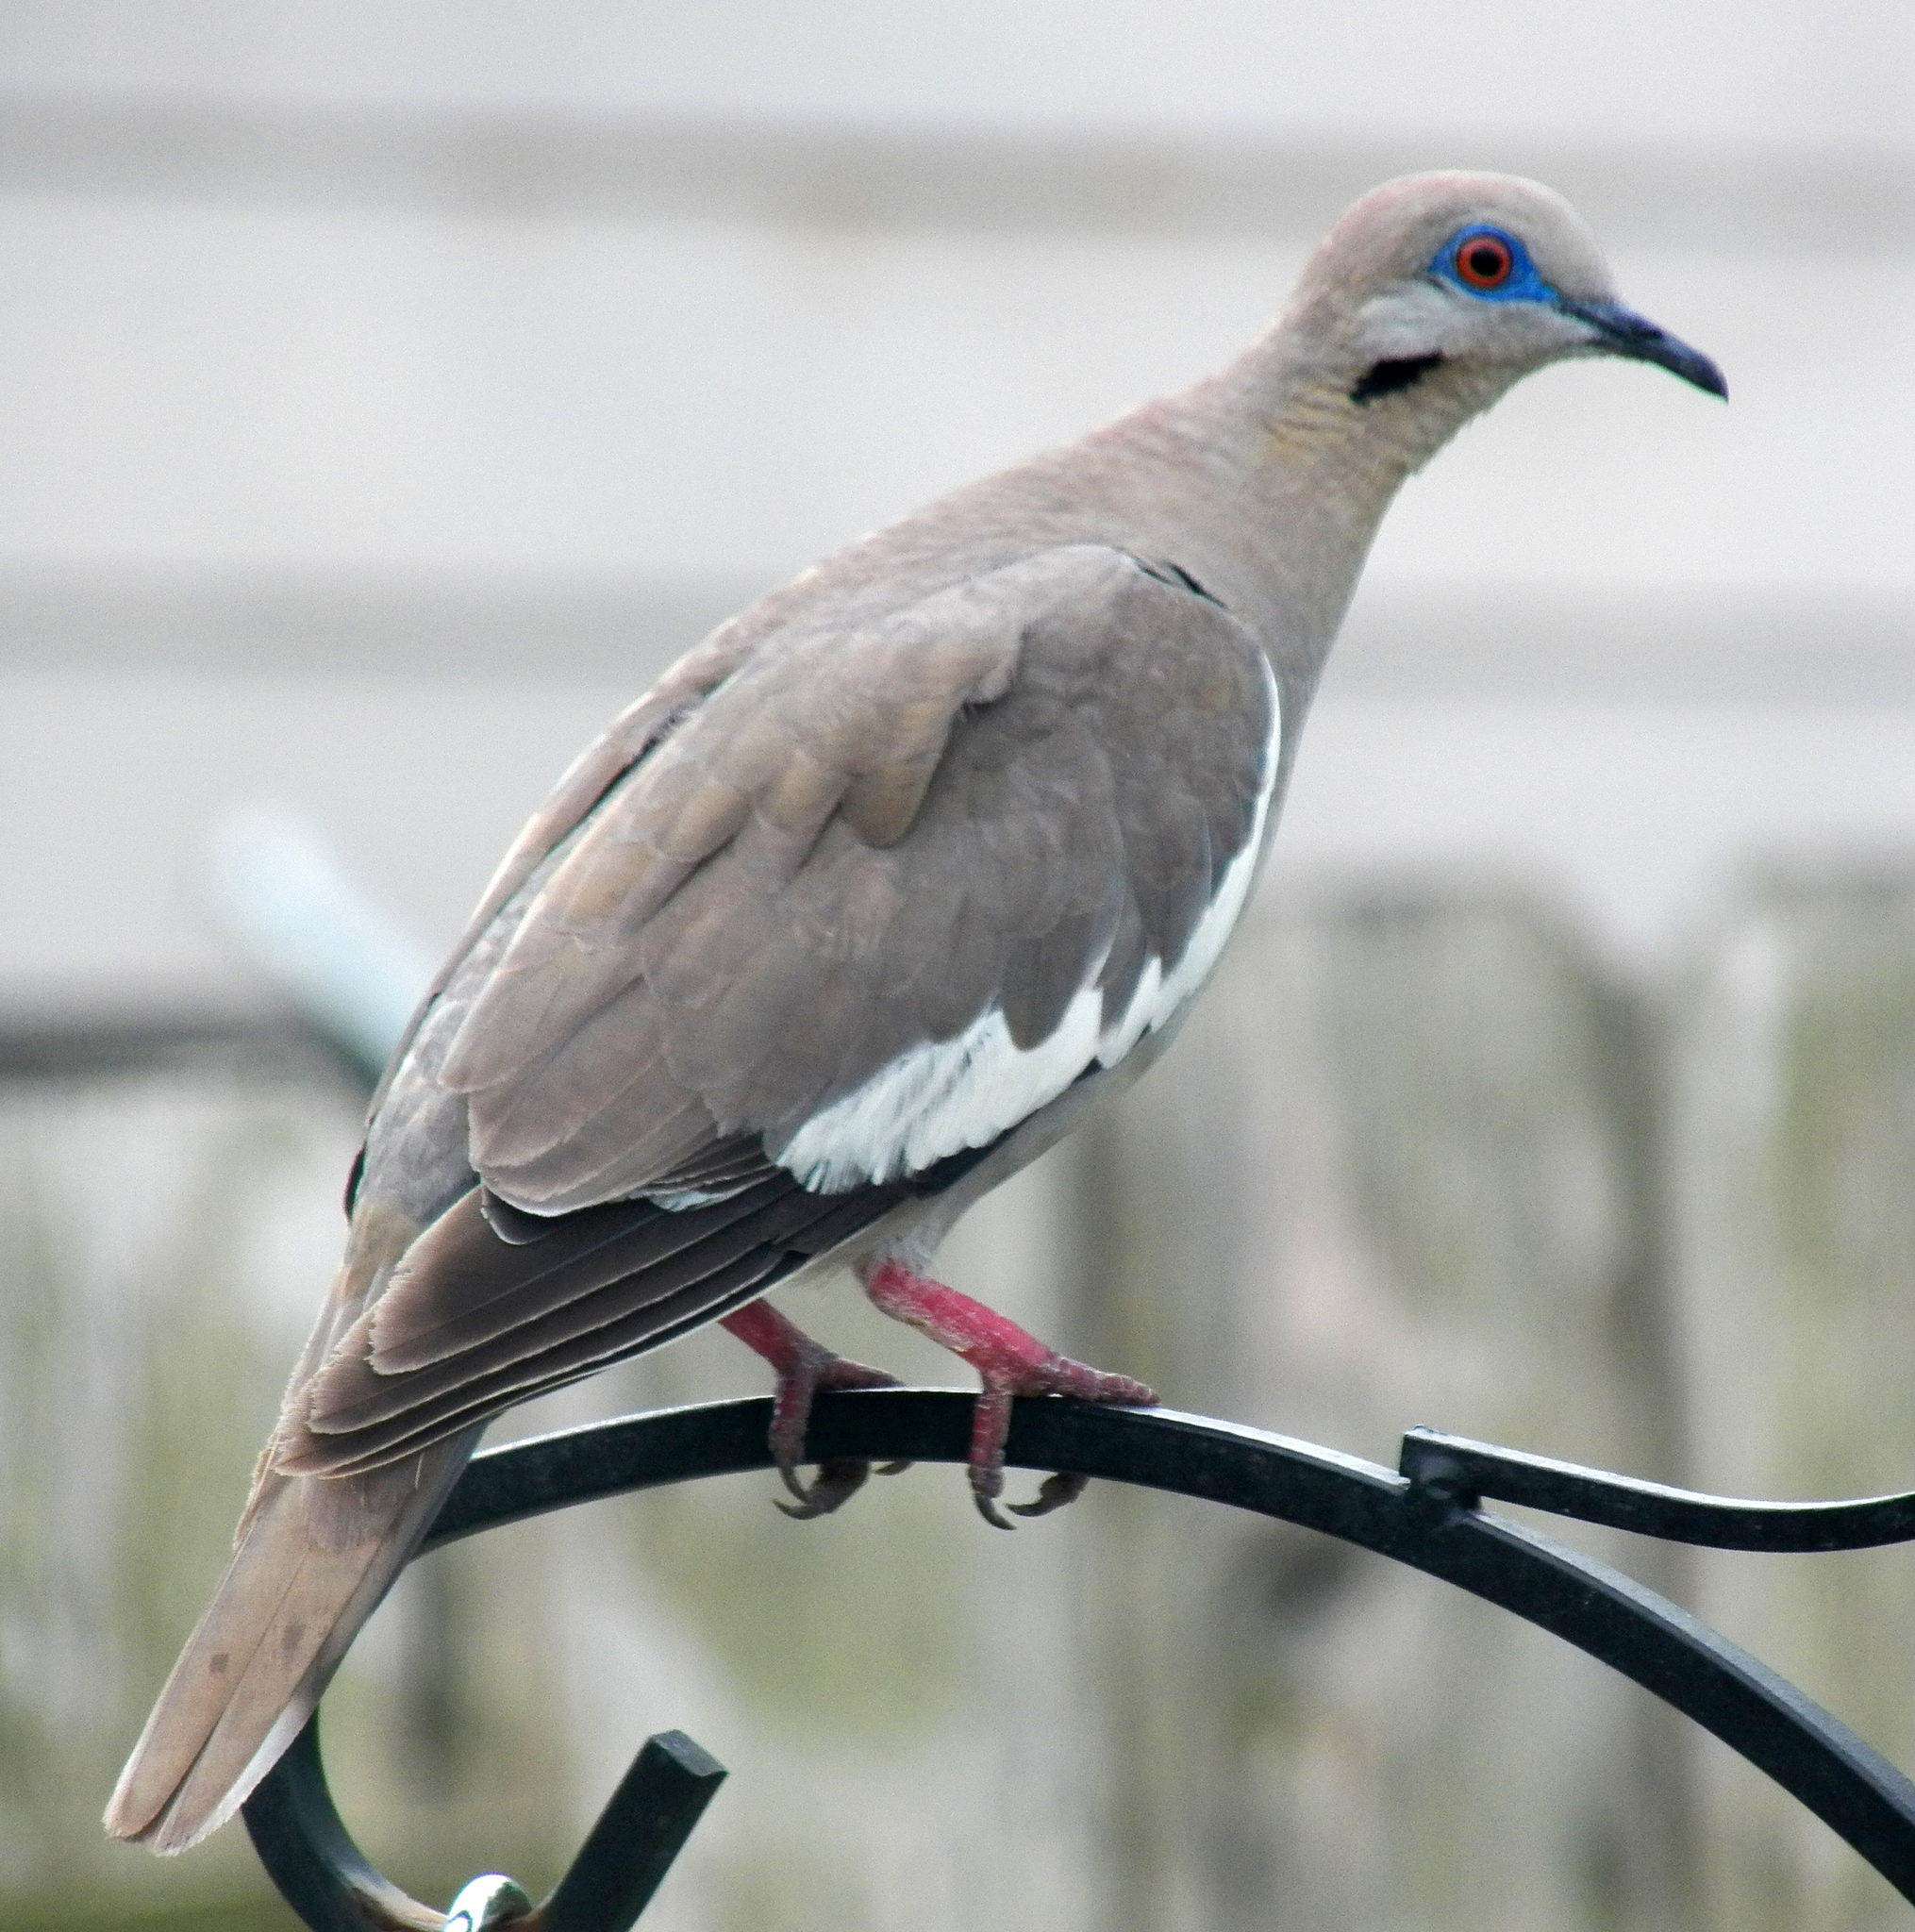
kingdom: Animalia
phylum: Chordata
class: Aves
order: Columbiformes
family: Columbidae
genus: Zenaida
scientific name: Zenaida asiatica
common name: White-winged dove
